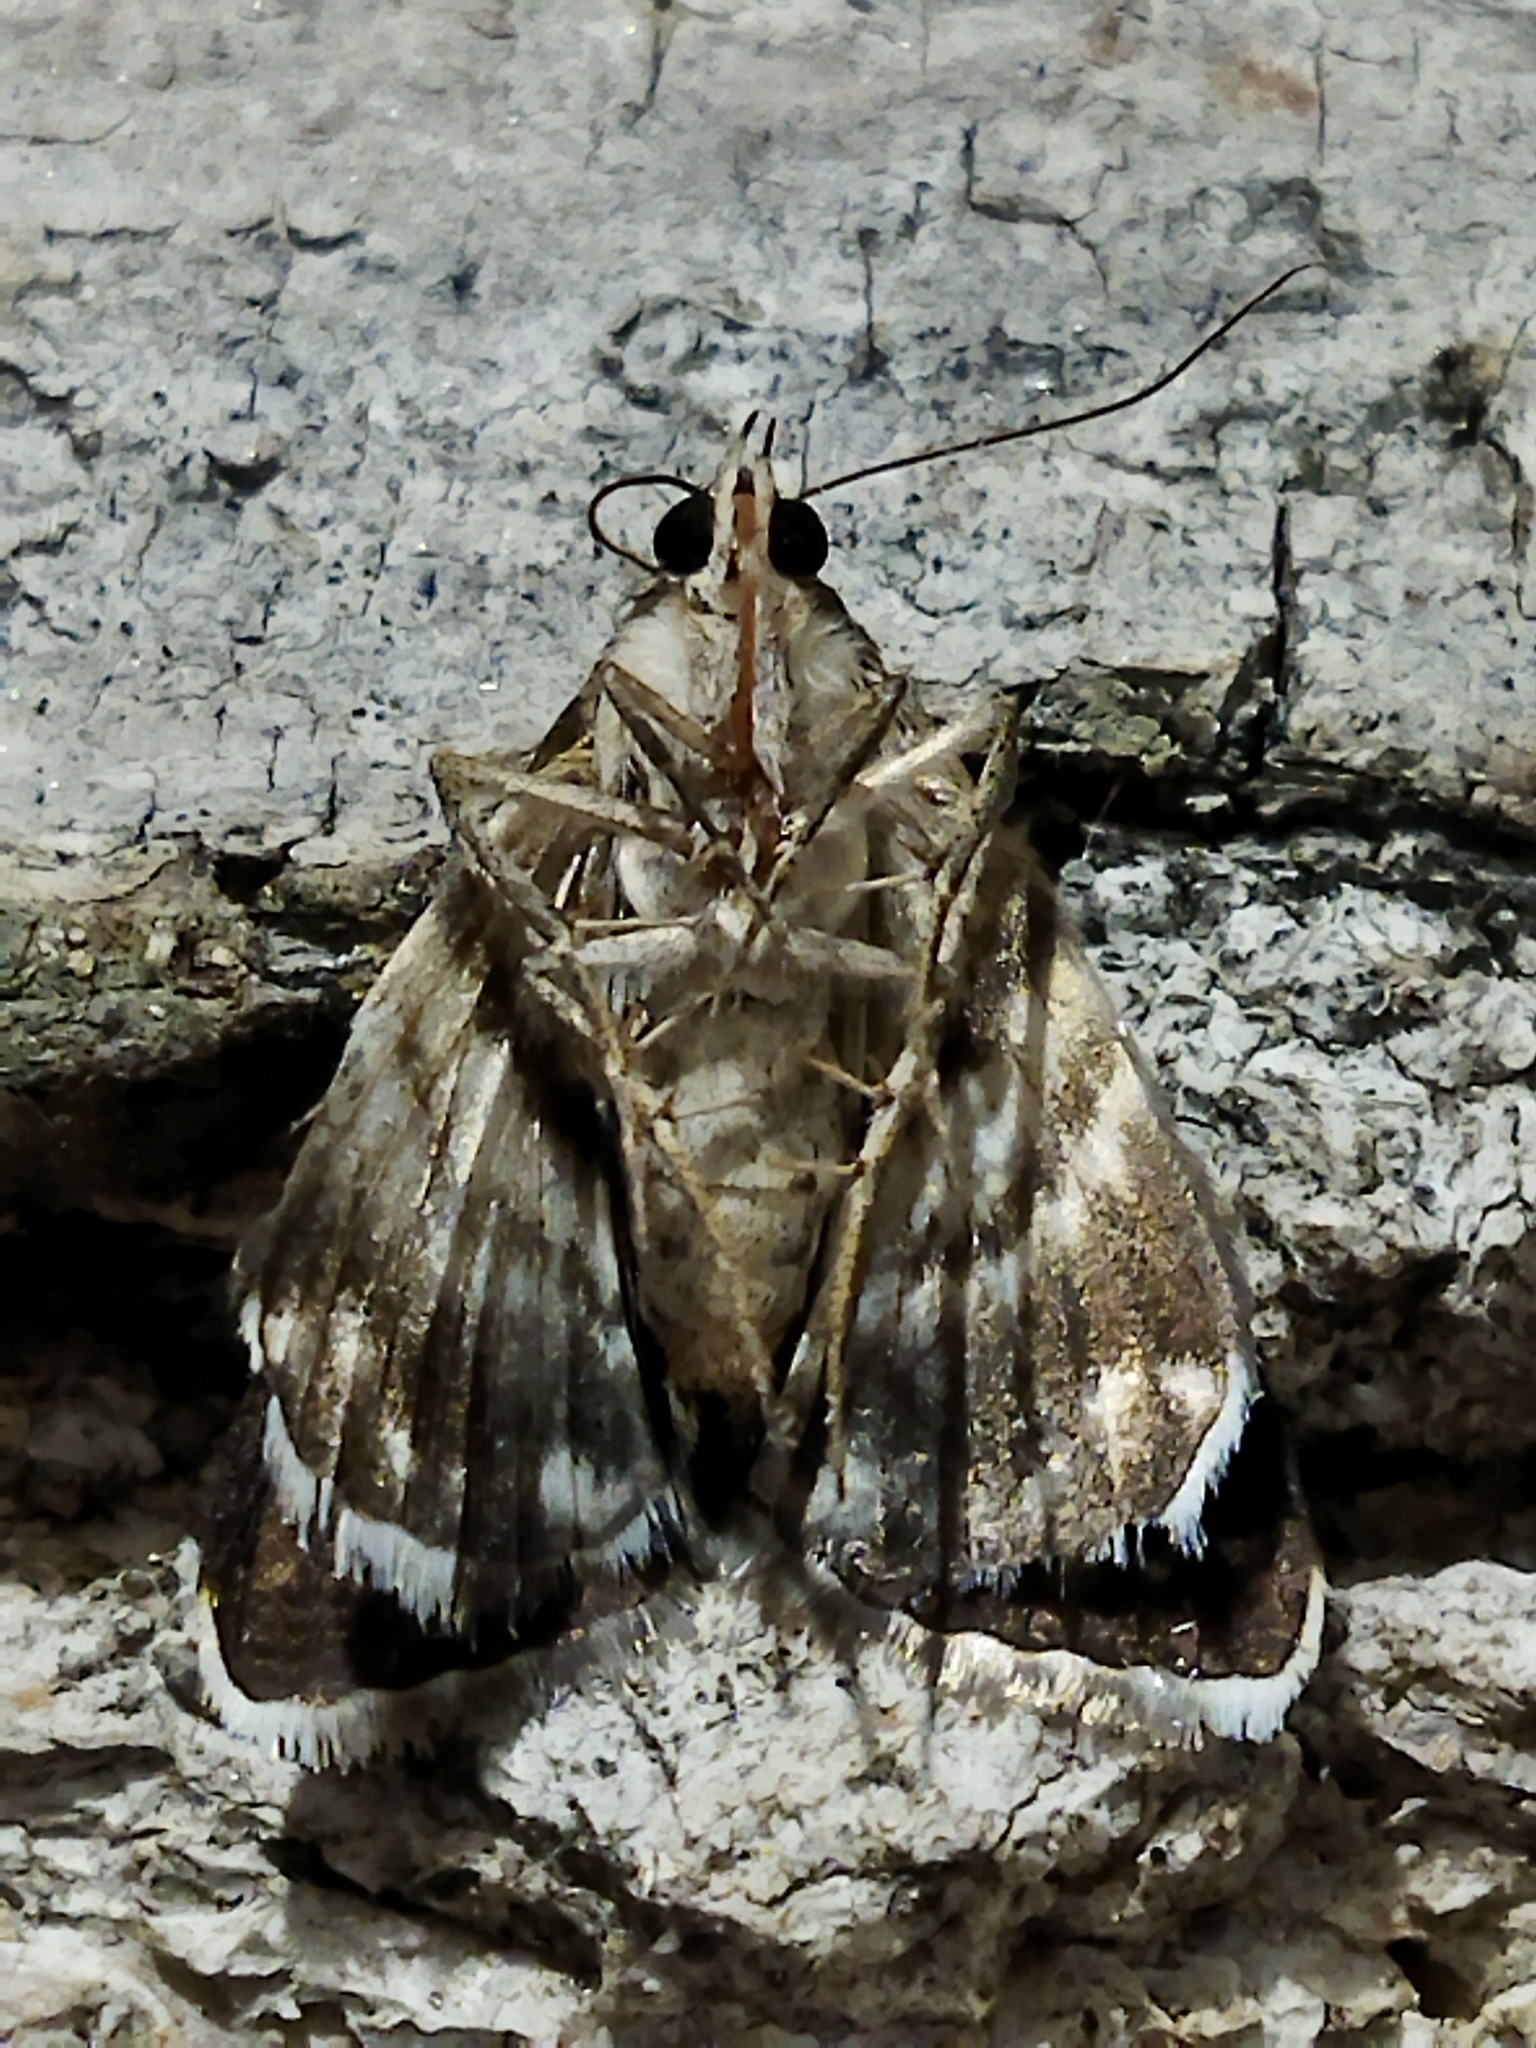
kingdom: Animalia
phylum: Arthropoda
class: Insecta
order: Lepidoptera
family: Erebidae
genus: Grammodes
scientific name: Grammodes stolida
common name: Geometrician
